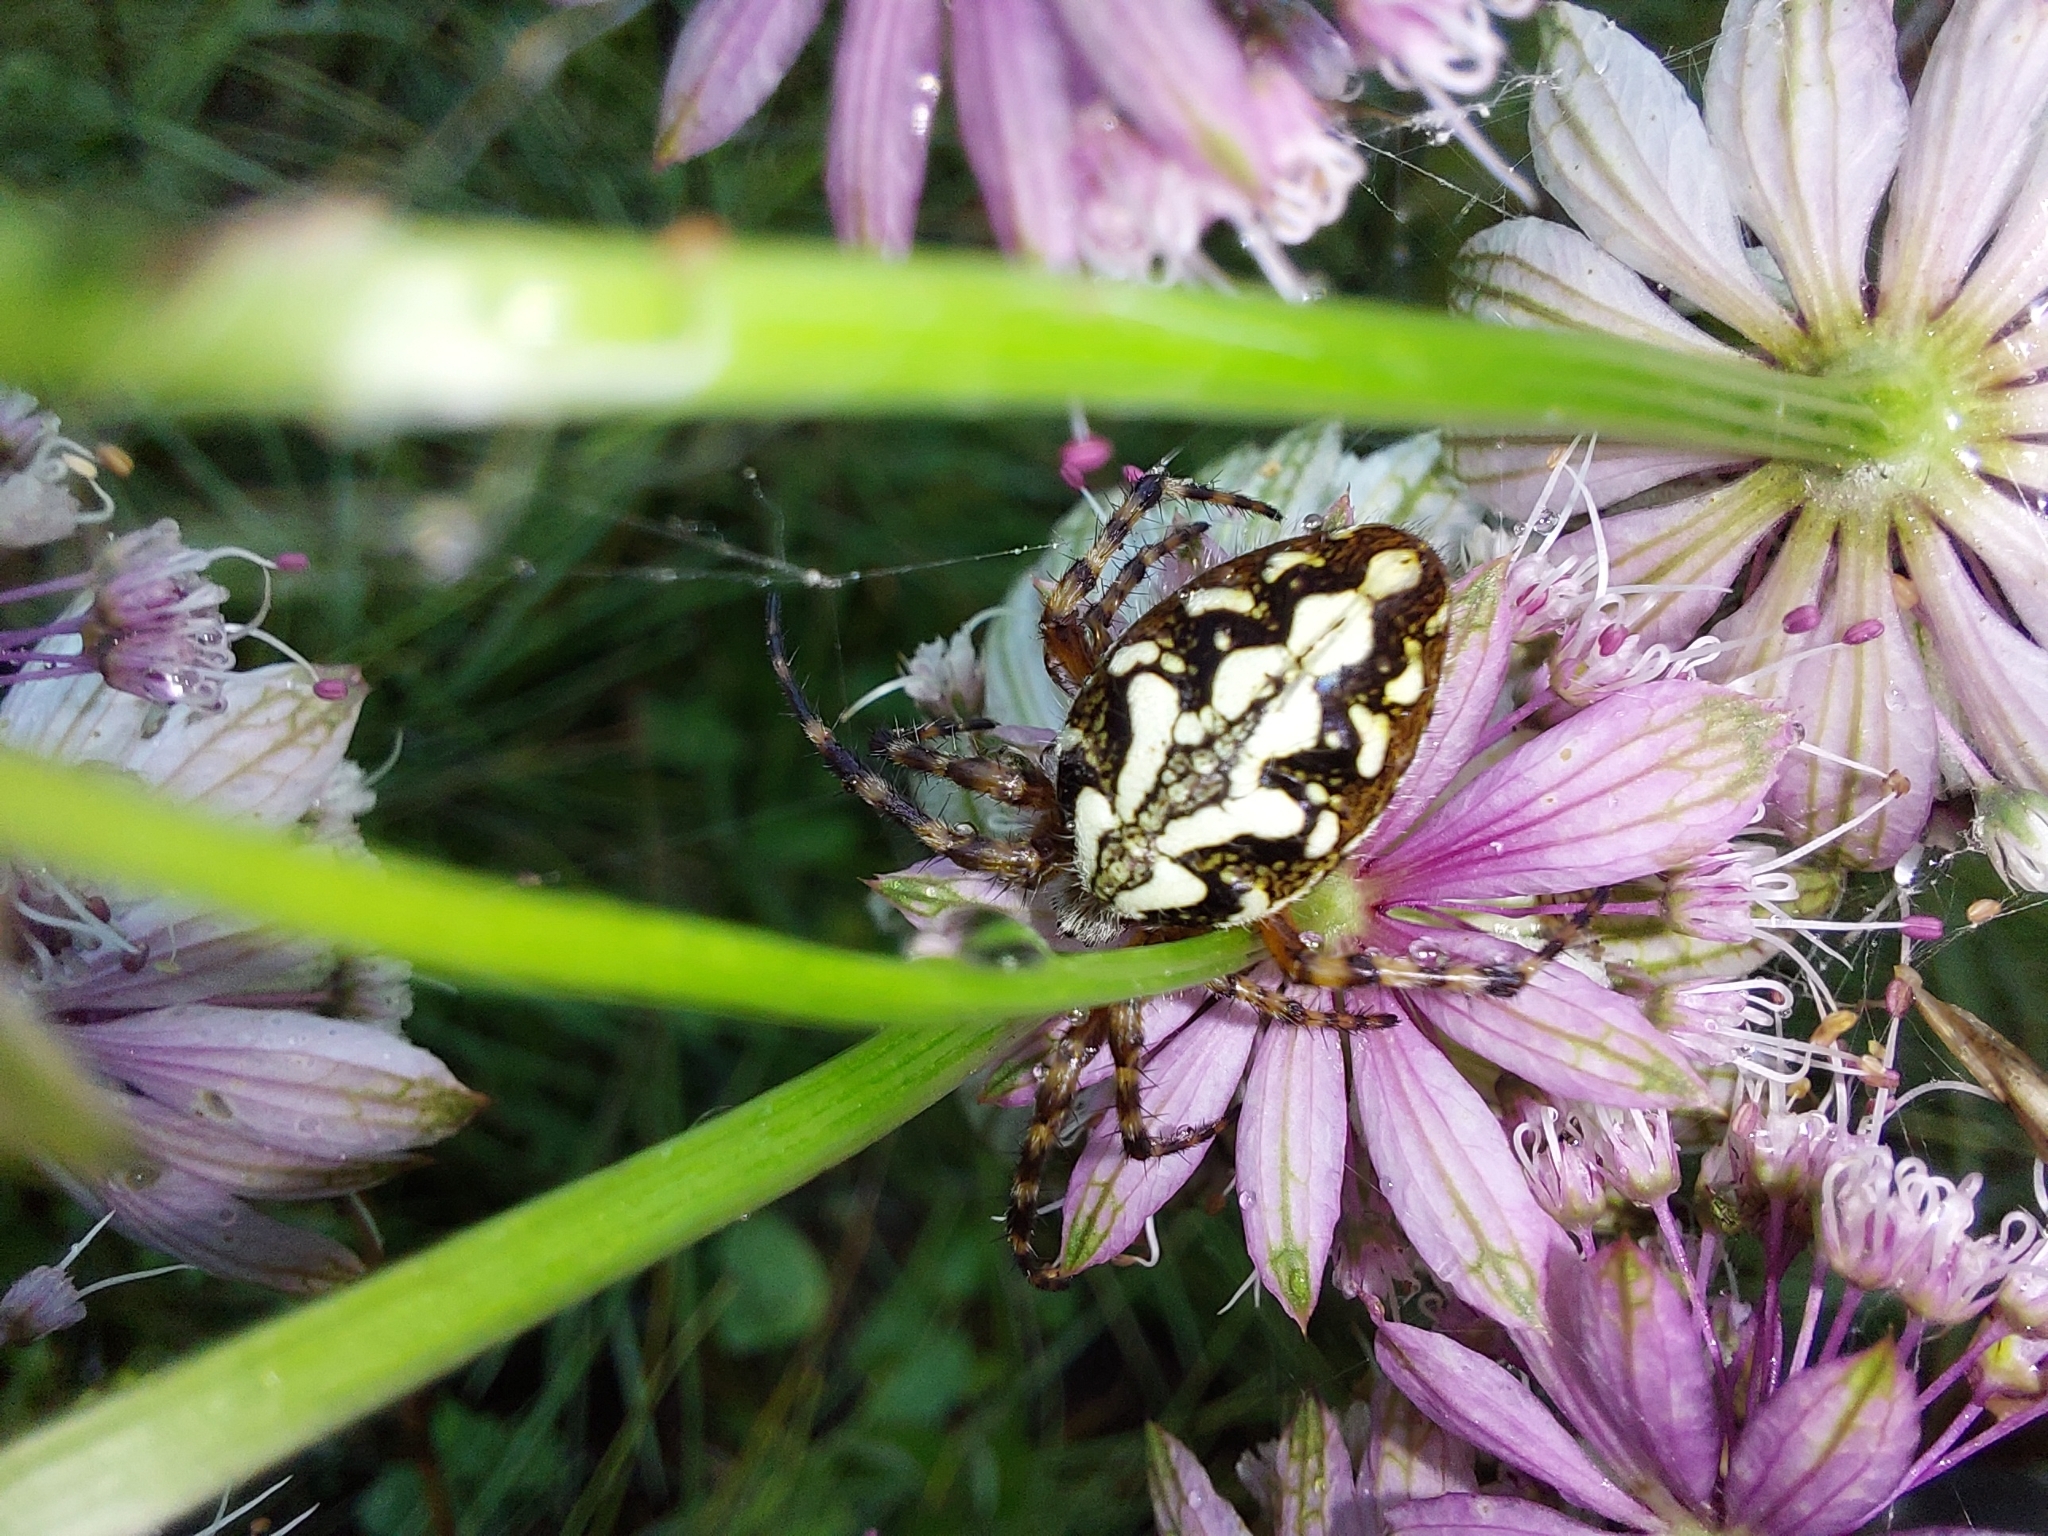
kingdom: Animalia
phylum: Arthropoda
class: Arachnida
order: Araneae
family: Araneidae
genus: Aculepeira
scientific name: Aculepeira ceropegia
